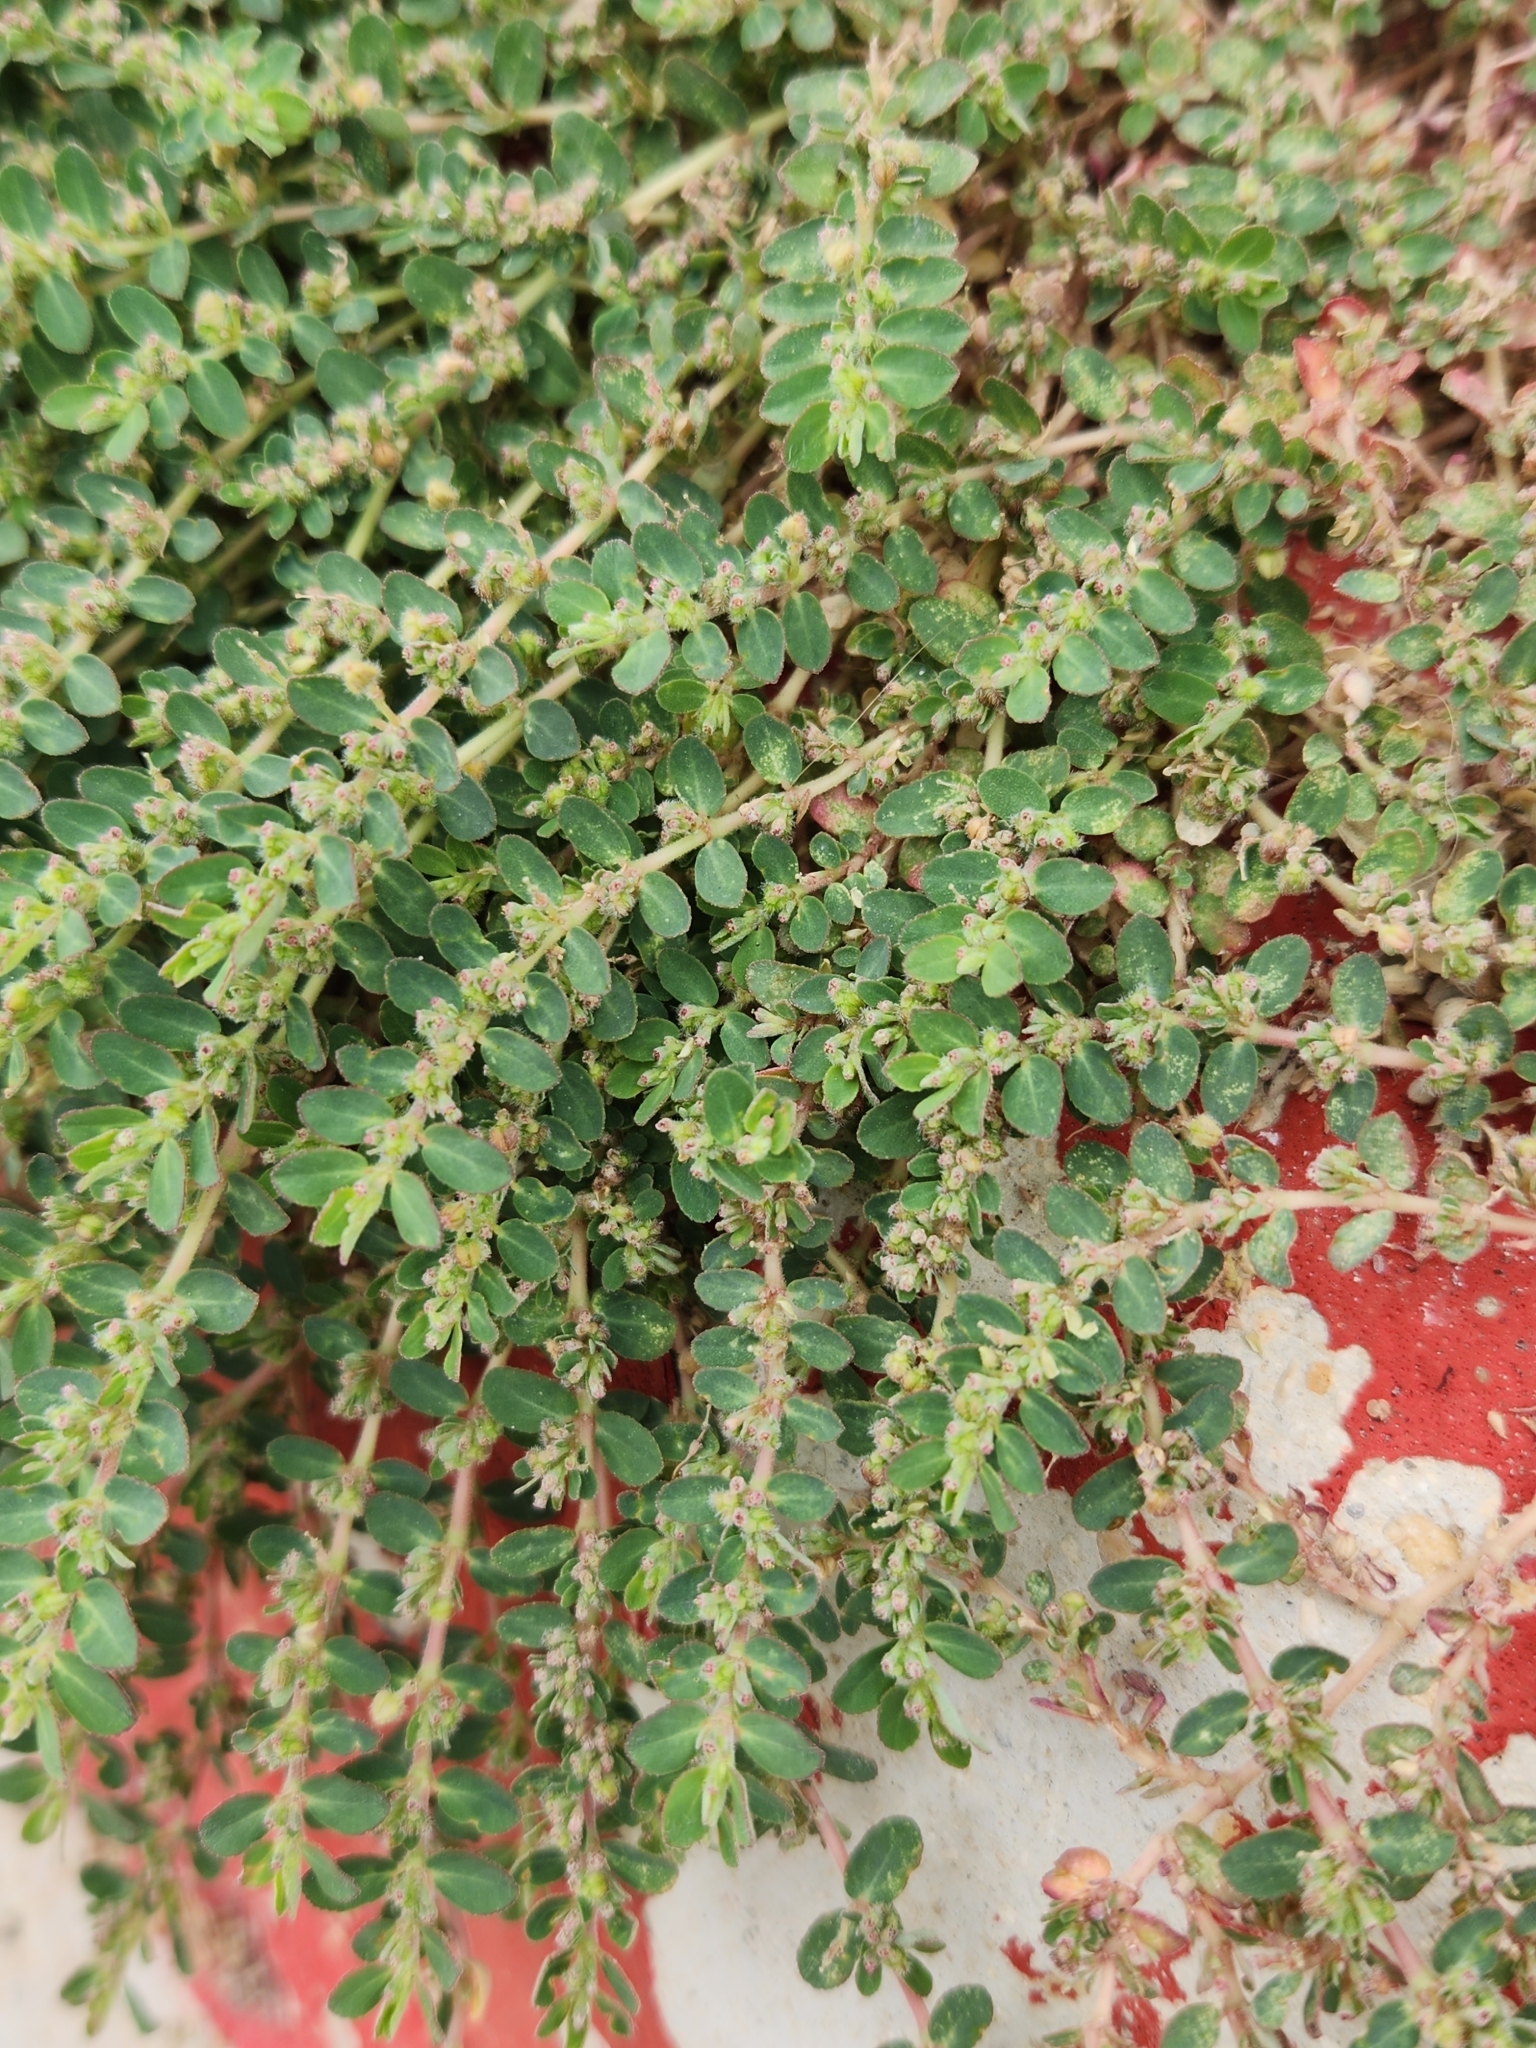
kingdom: Plantae
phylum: Tracheophyta
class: Magnoliopsida
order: Malpighiales
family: Euphorbiaceae
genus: Euphorbia
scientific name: Euphorbia prostrata
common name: Prostrate sandmat
